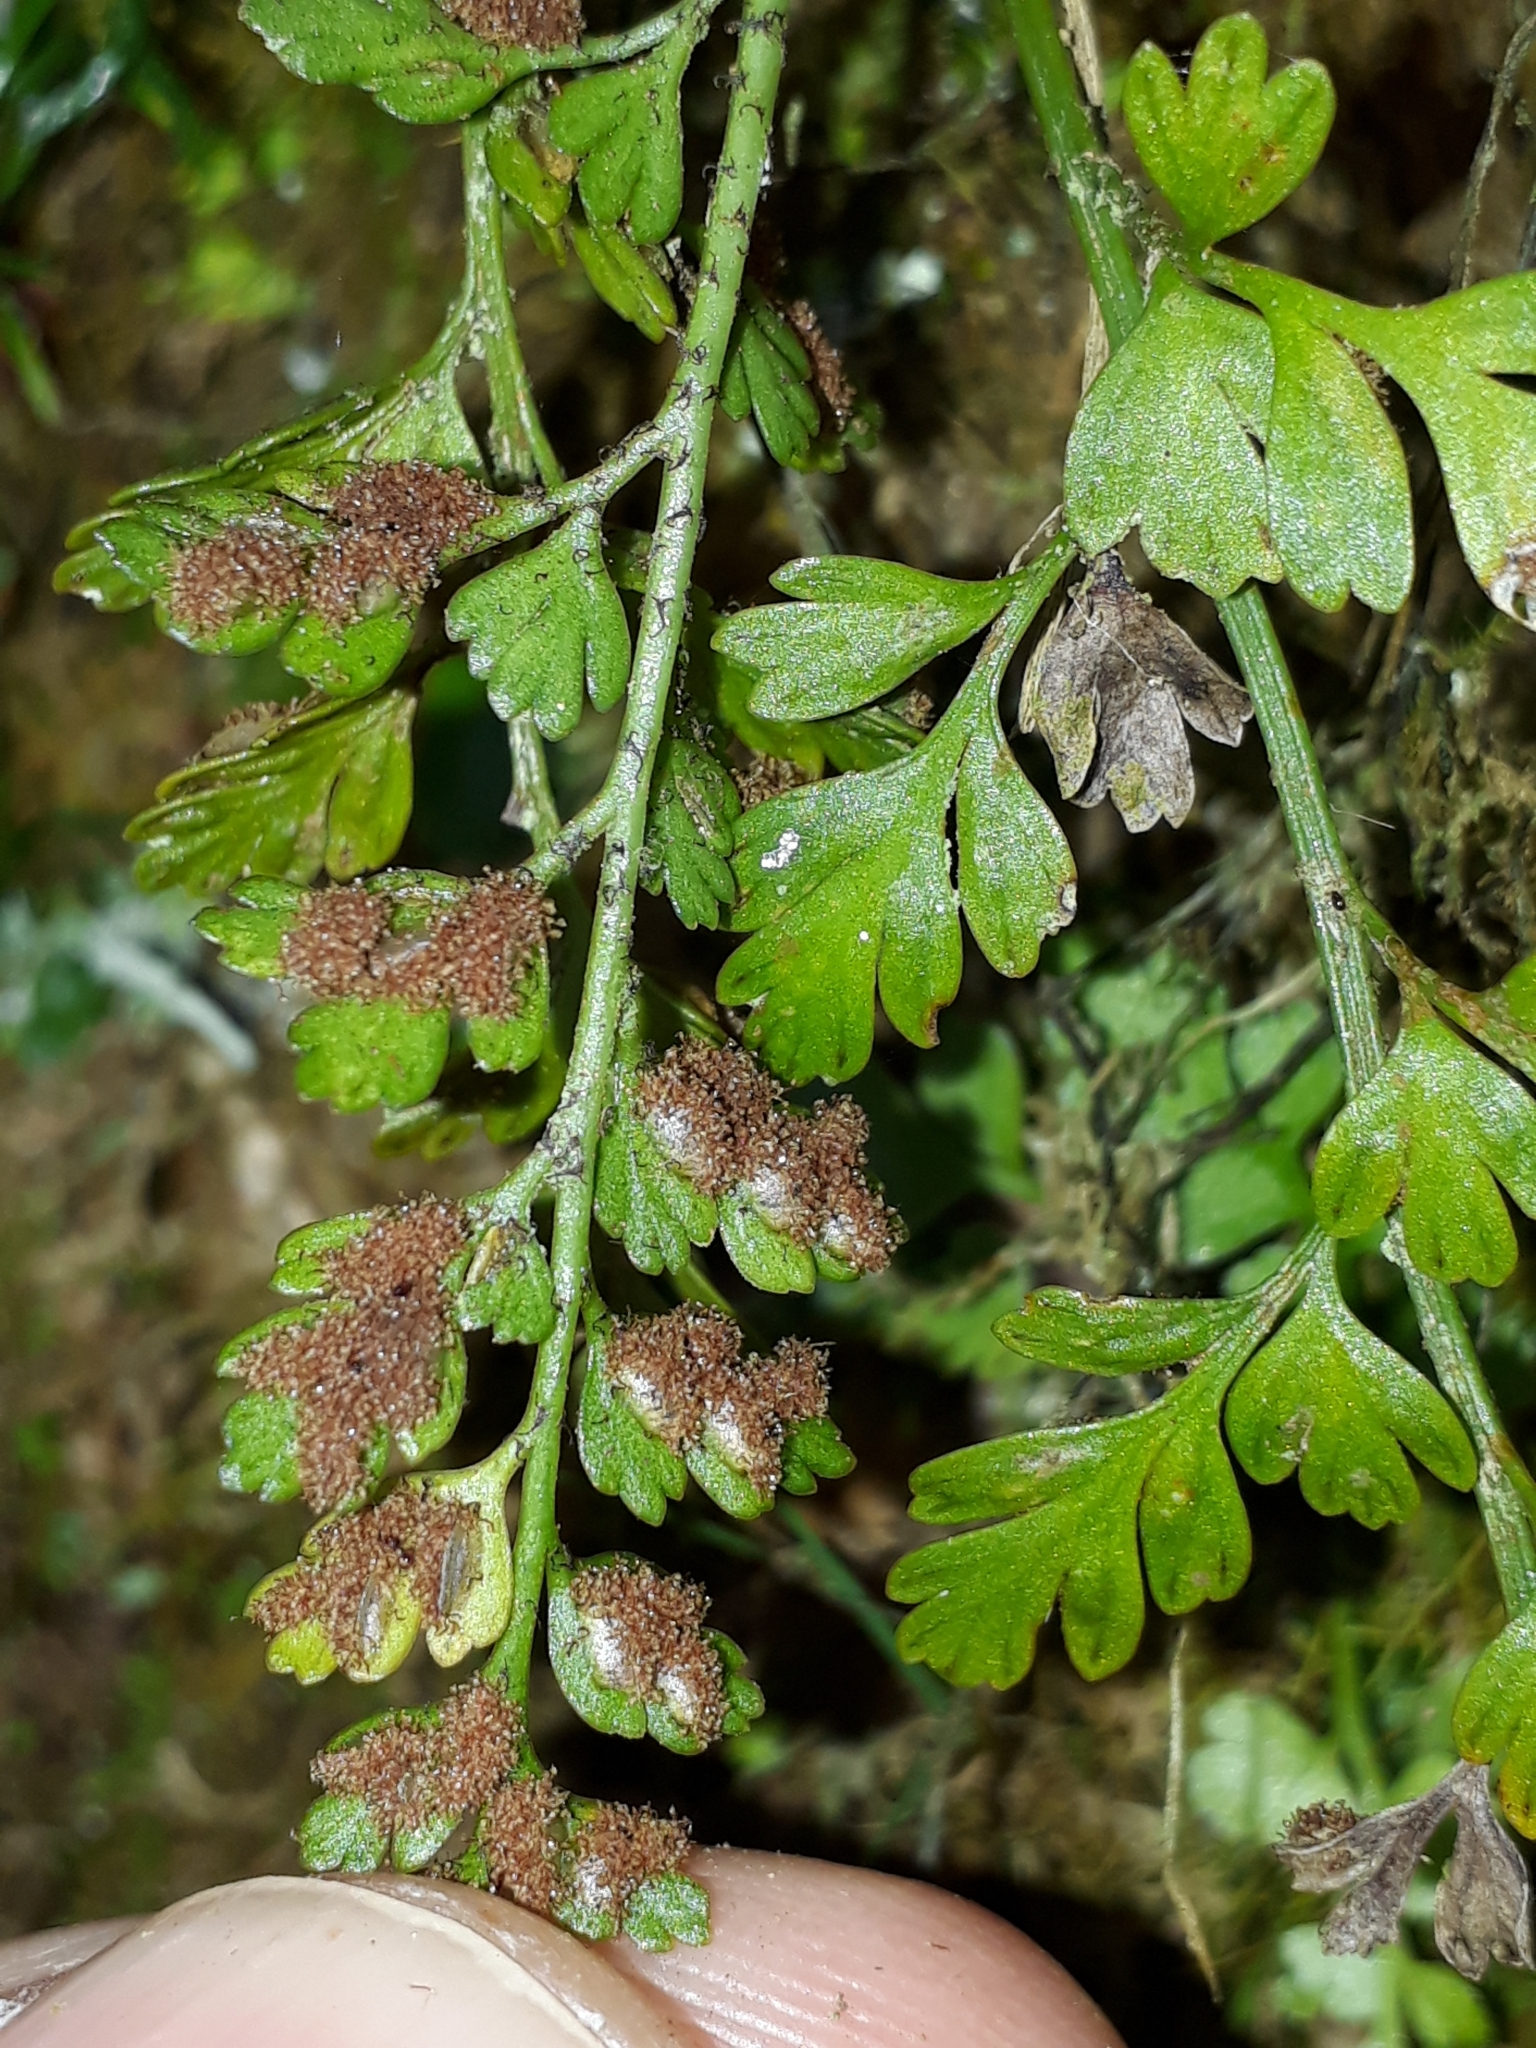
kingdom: Plantae
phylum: Tracheophyta
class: Polypodiopsida
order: Polypodiales
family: Aspleniaceae
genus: Asplenium
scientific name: Asplenium hookerianum
